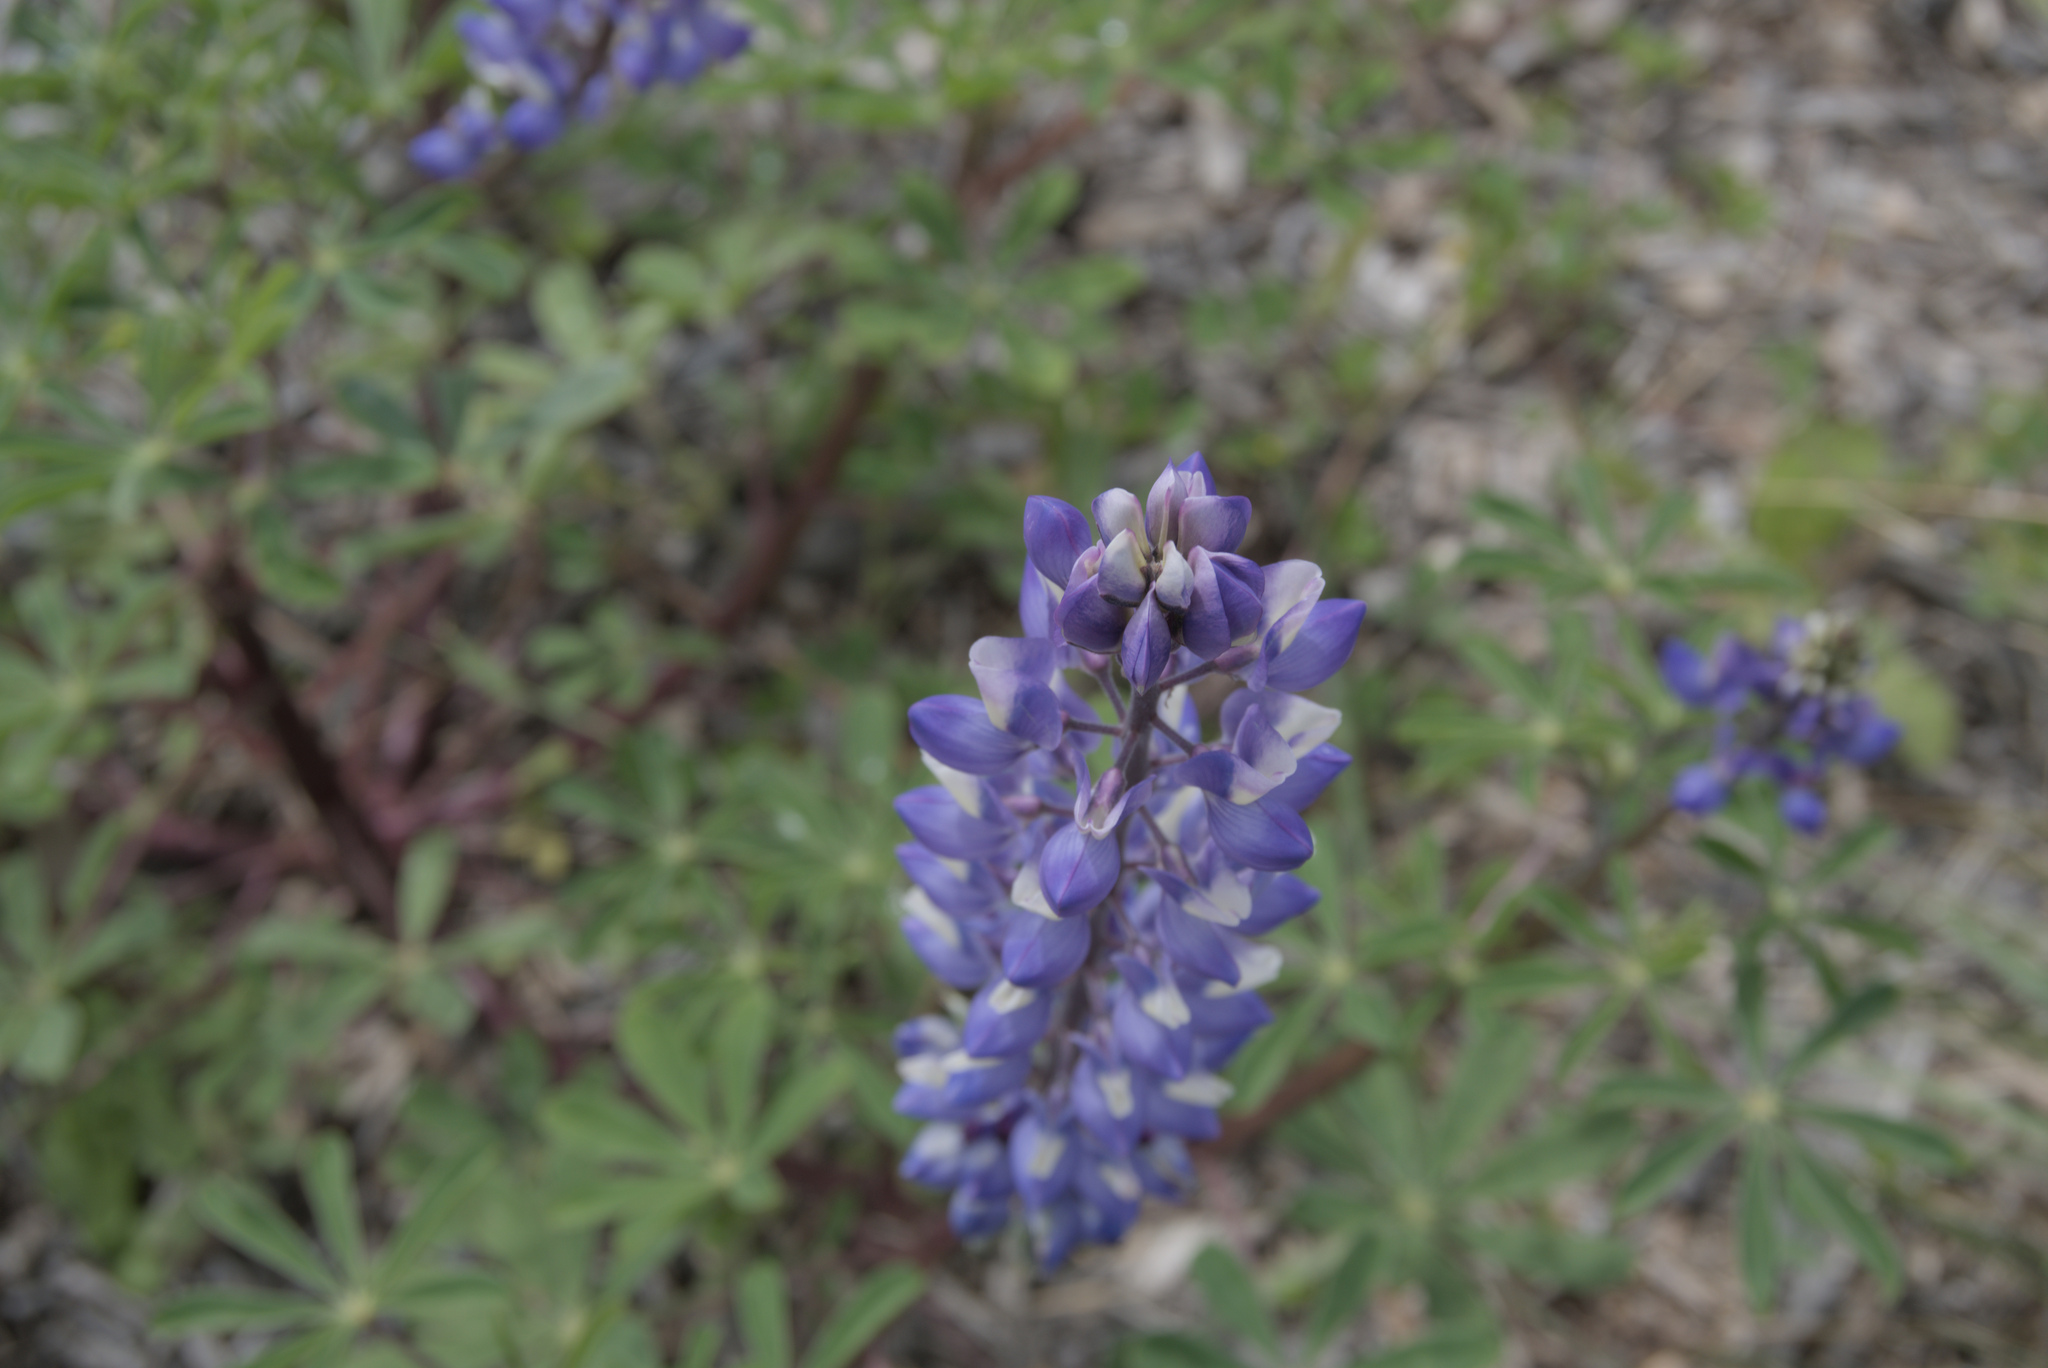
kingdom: Plantae
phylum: Tracheophyta
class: Magnoliopsida
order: Fabales
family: Fabaceae
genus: Lupinus
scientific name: Lupinus succulentus
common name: Arroyo lupine
